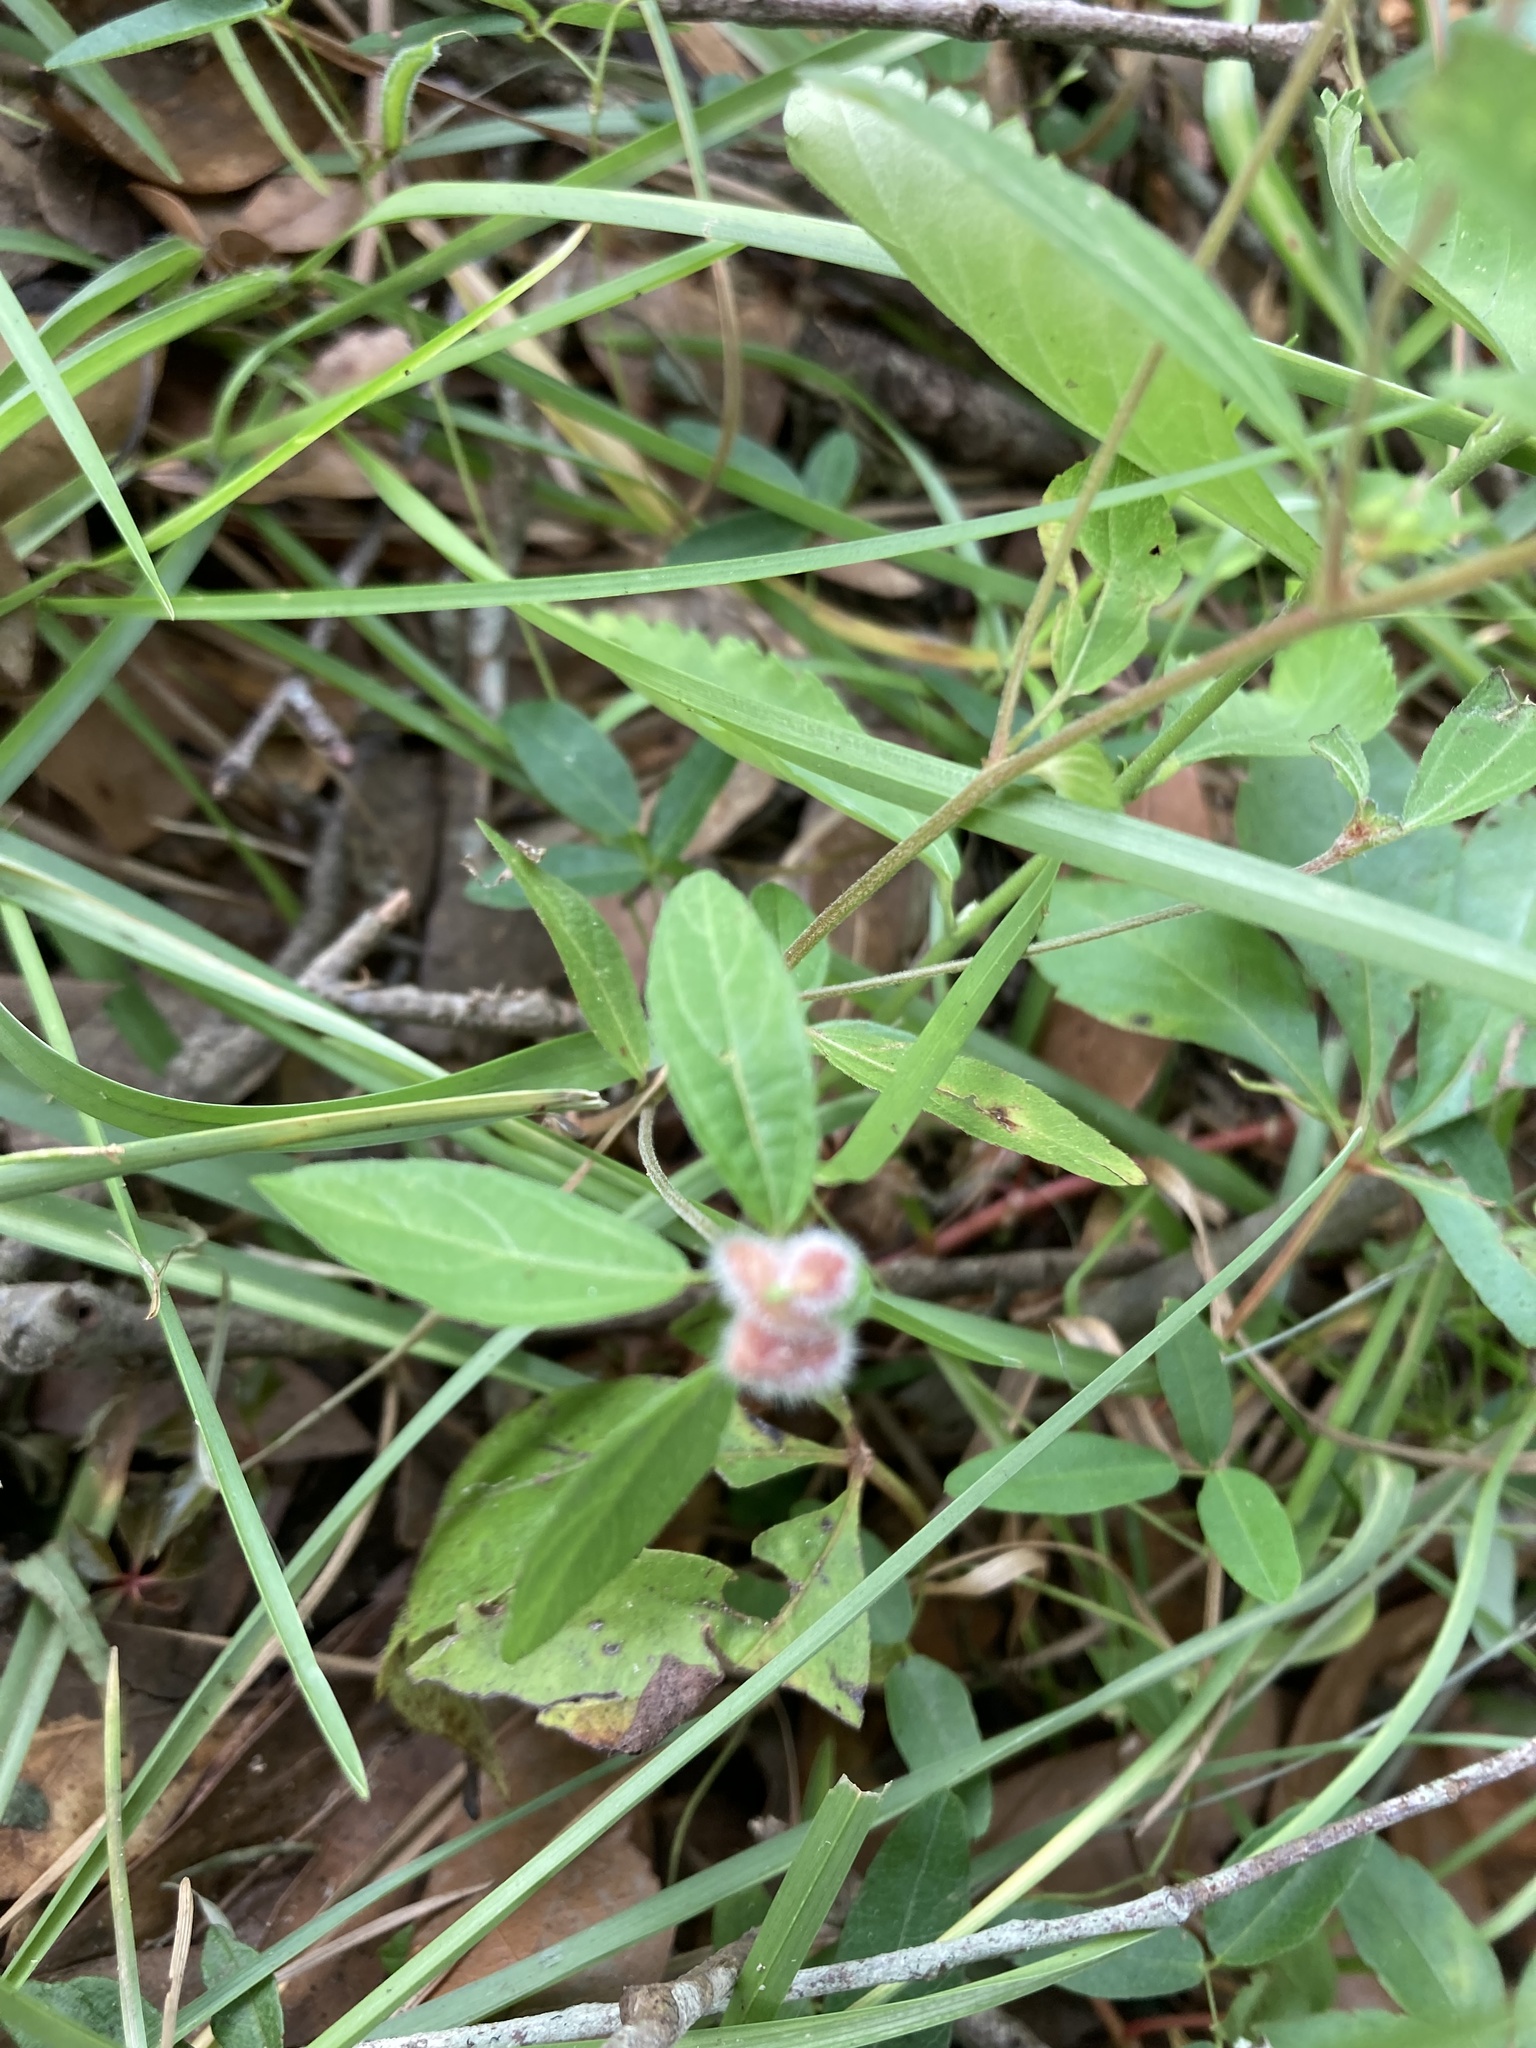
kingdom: Plantae
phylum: Tracheophyta
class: Magnoliopsida
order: Malpighiales
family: Euphorbiaceae
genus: Acalypha
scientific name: Acalypha gracilens
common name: Slender three-seeded mercury
